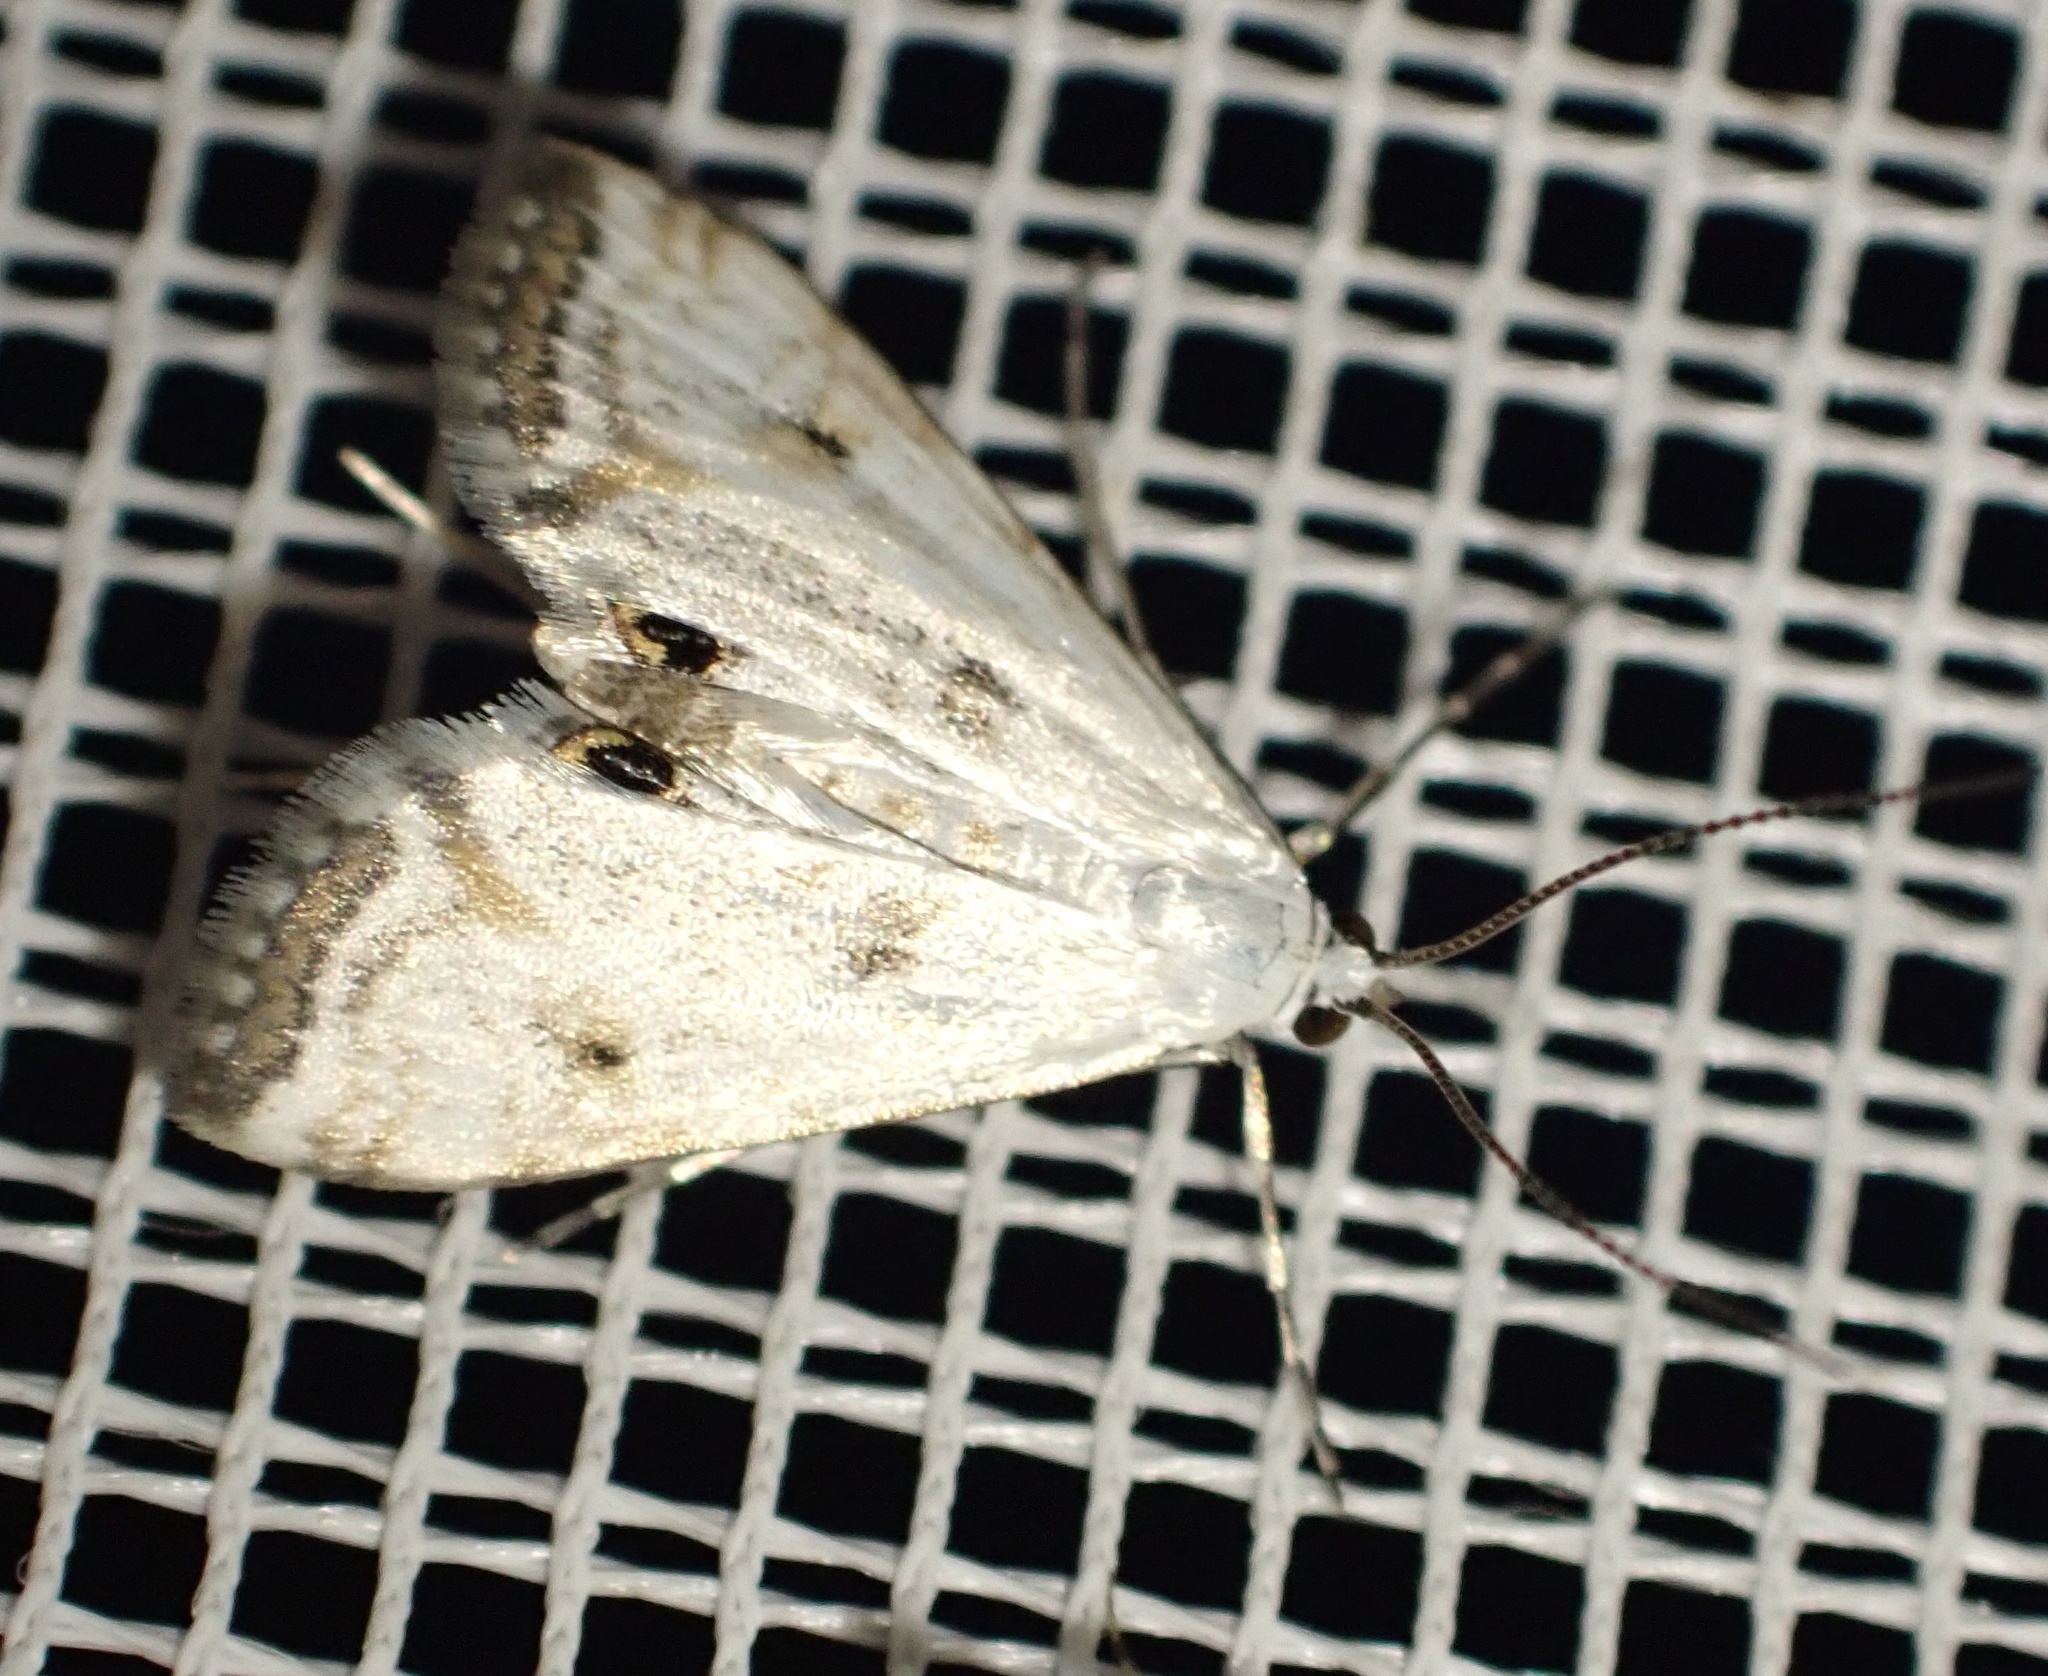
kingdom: Animalia
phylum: Arthropoda
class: Insecta
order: Lepidoptera
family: Crambidae
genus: Cataclysta
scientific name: Cataclysta lemnata
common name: Small china-mark
